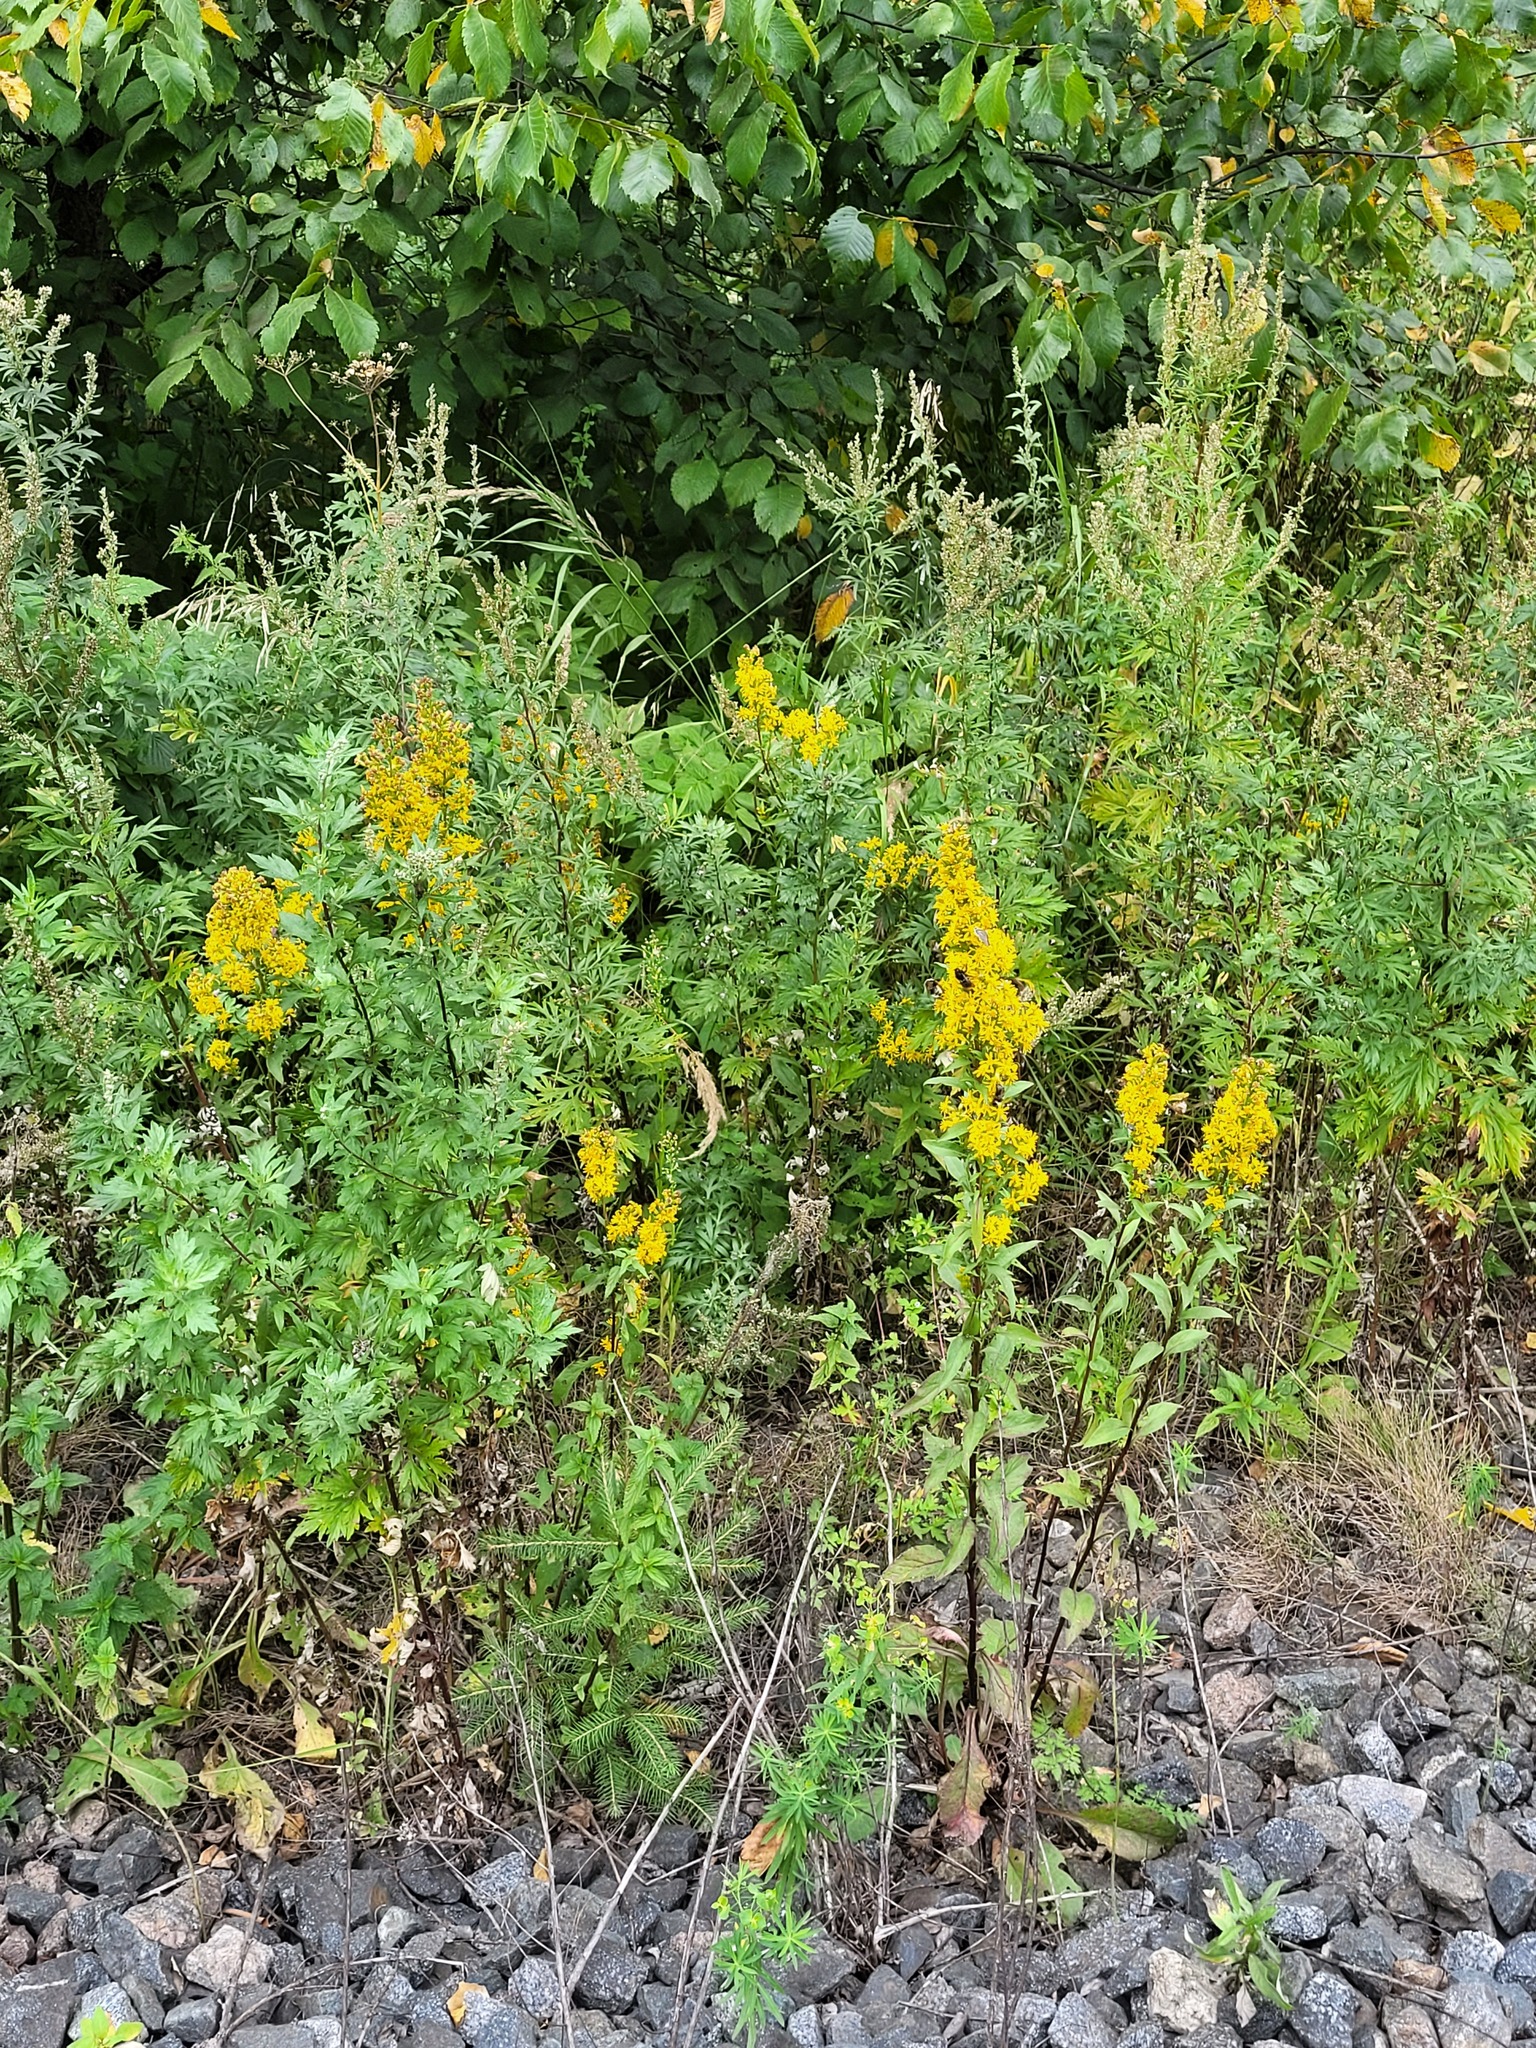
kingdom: Plantae
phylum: Tracheophyta
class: Magnoliopsida
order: Asterales
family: Asteraceae
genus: Solidago
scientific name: Solidago virgaurea
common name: Goldenrod
